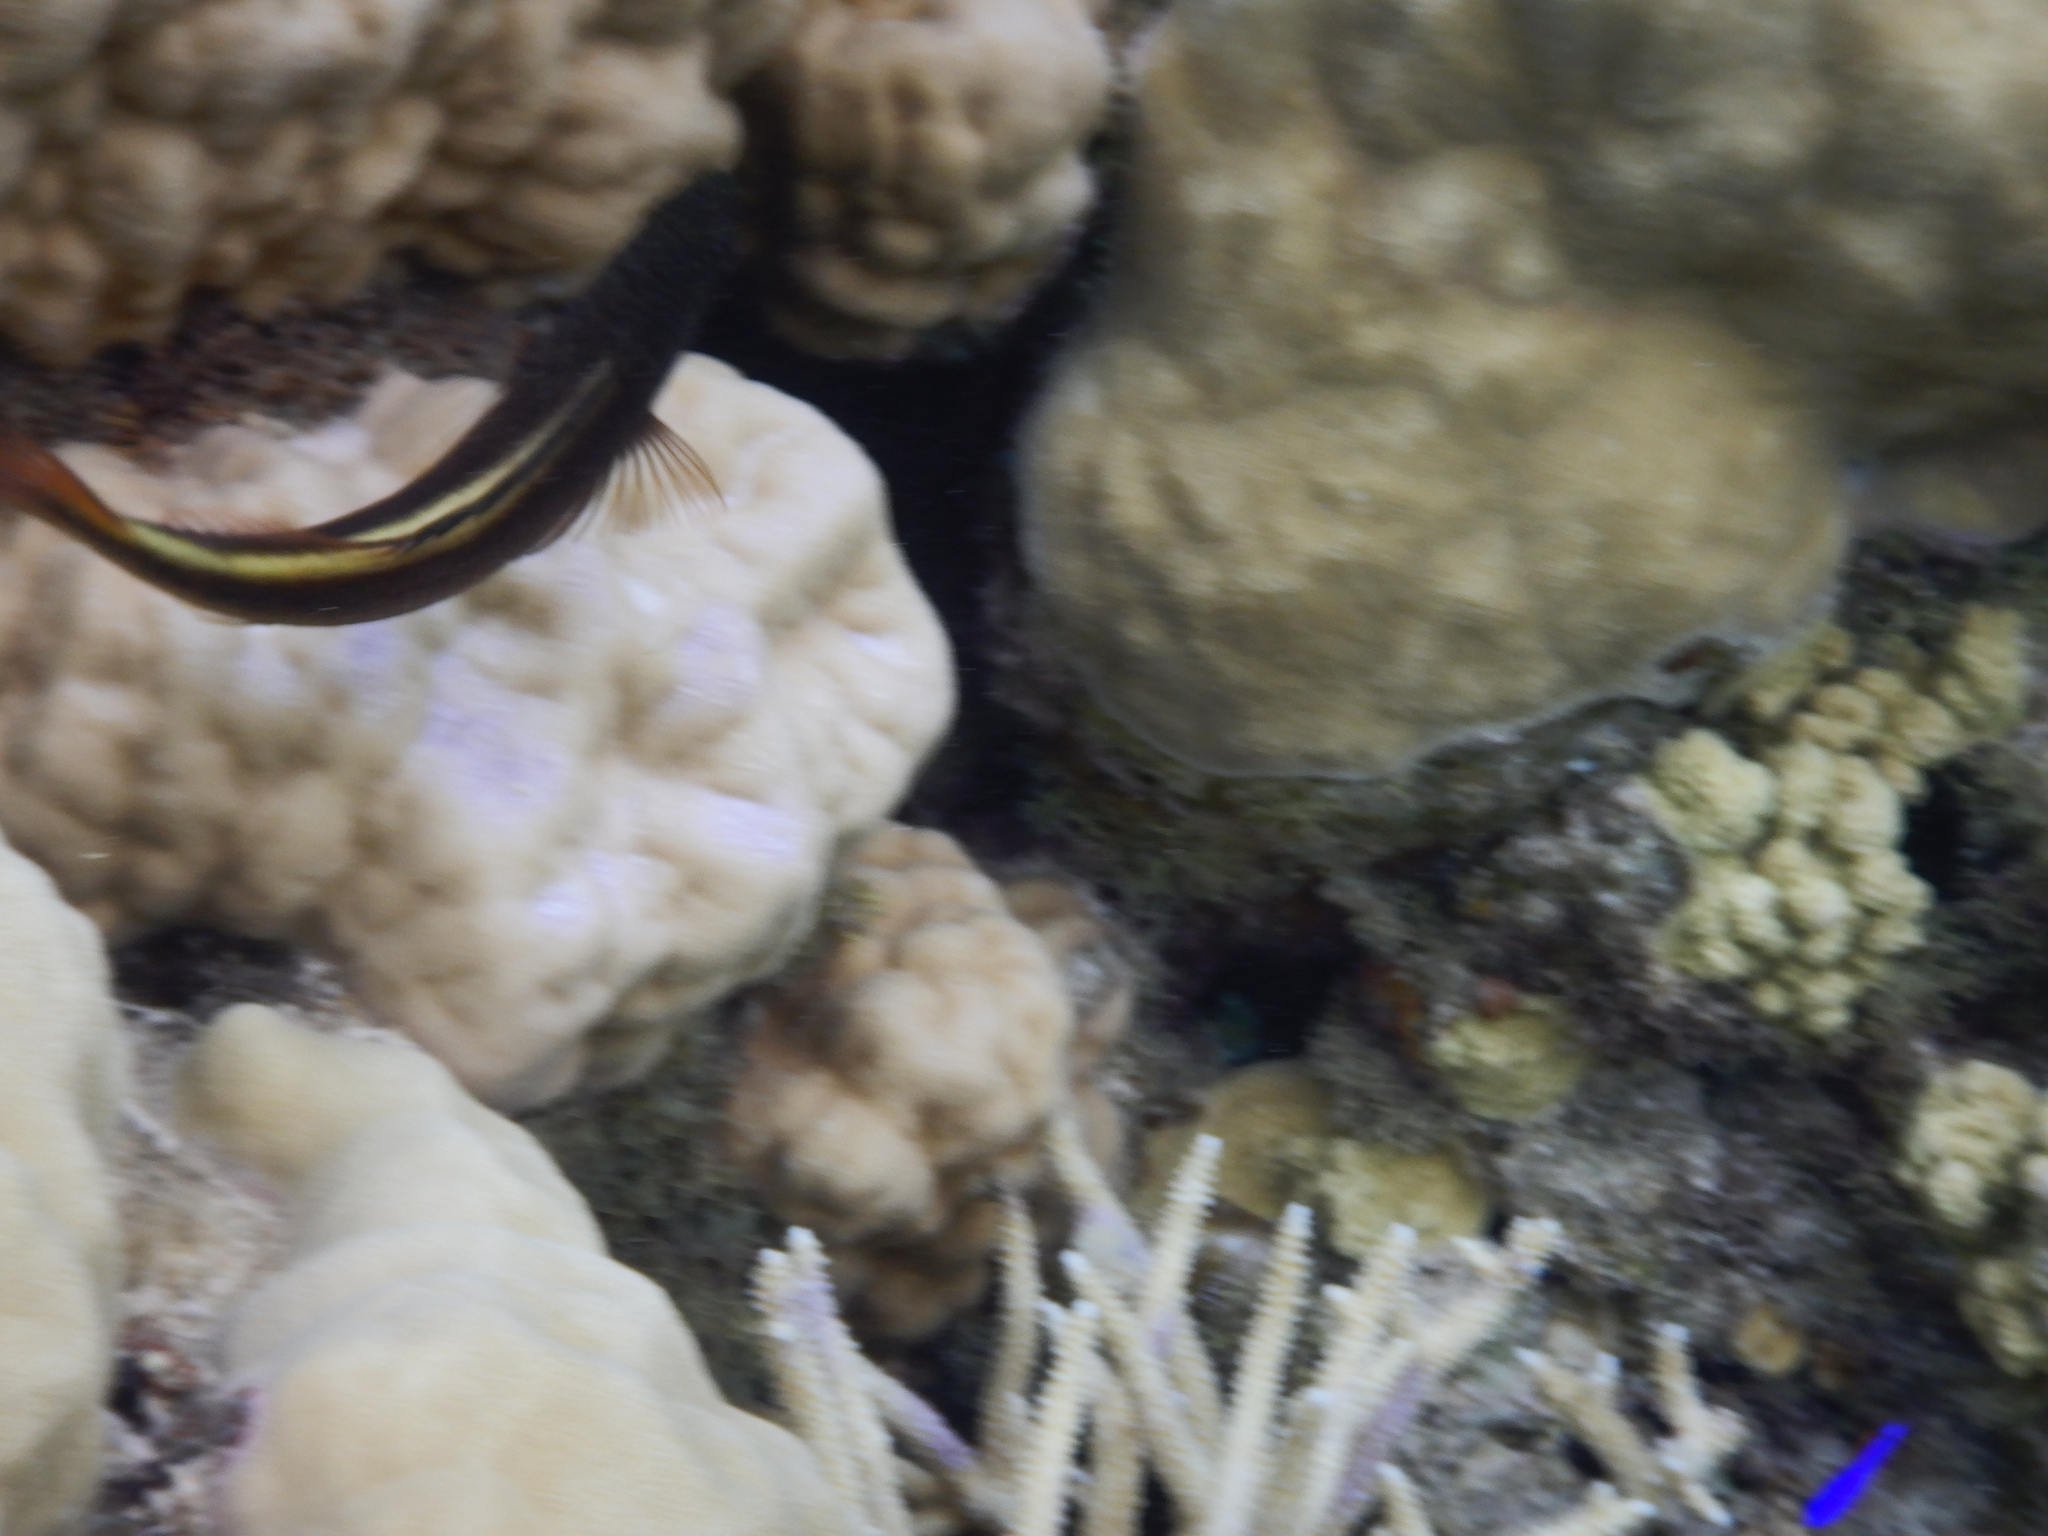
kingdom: Animalia
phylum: Chordata
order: Perciformes
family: Cirrhitidae
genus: Paracirrhites
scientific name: Paracirrhites forsteri
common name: Freckled hawkfish
